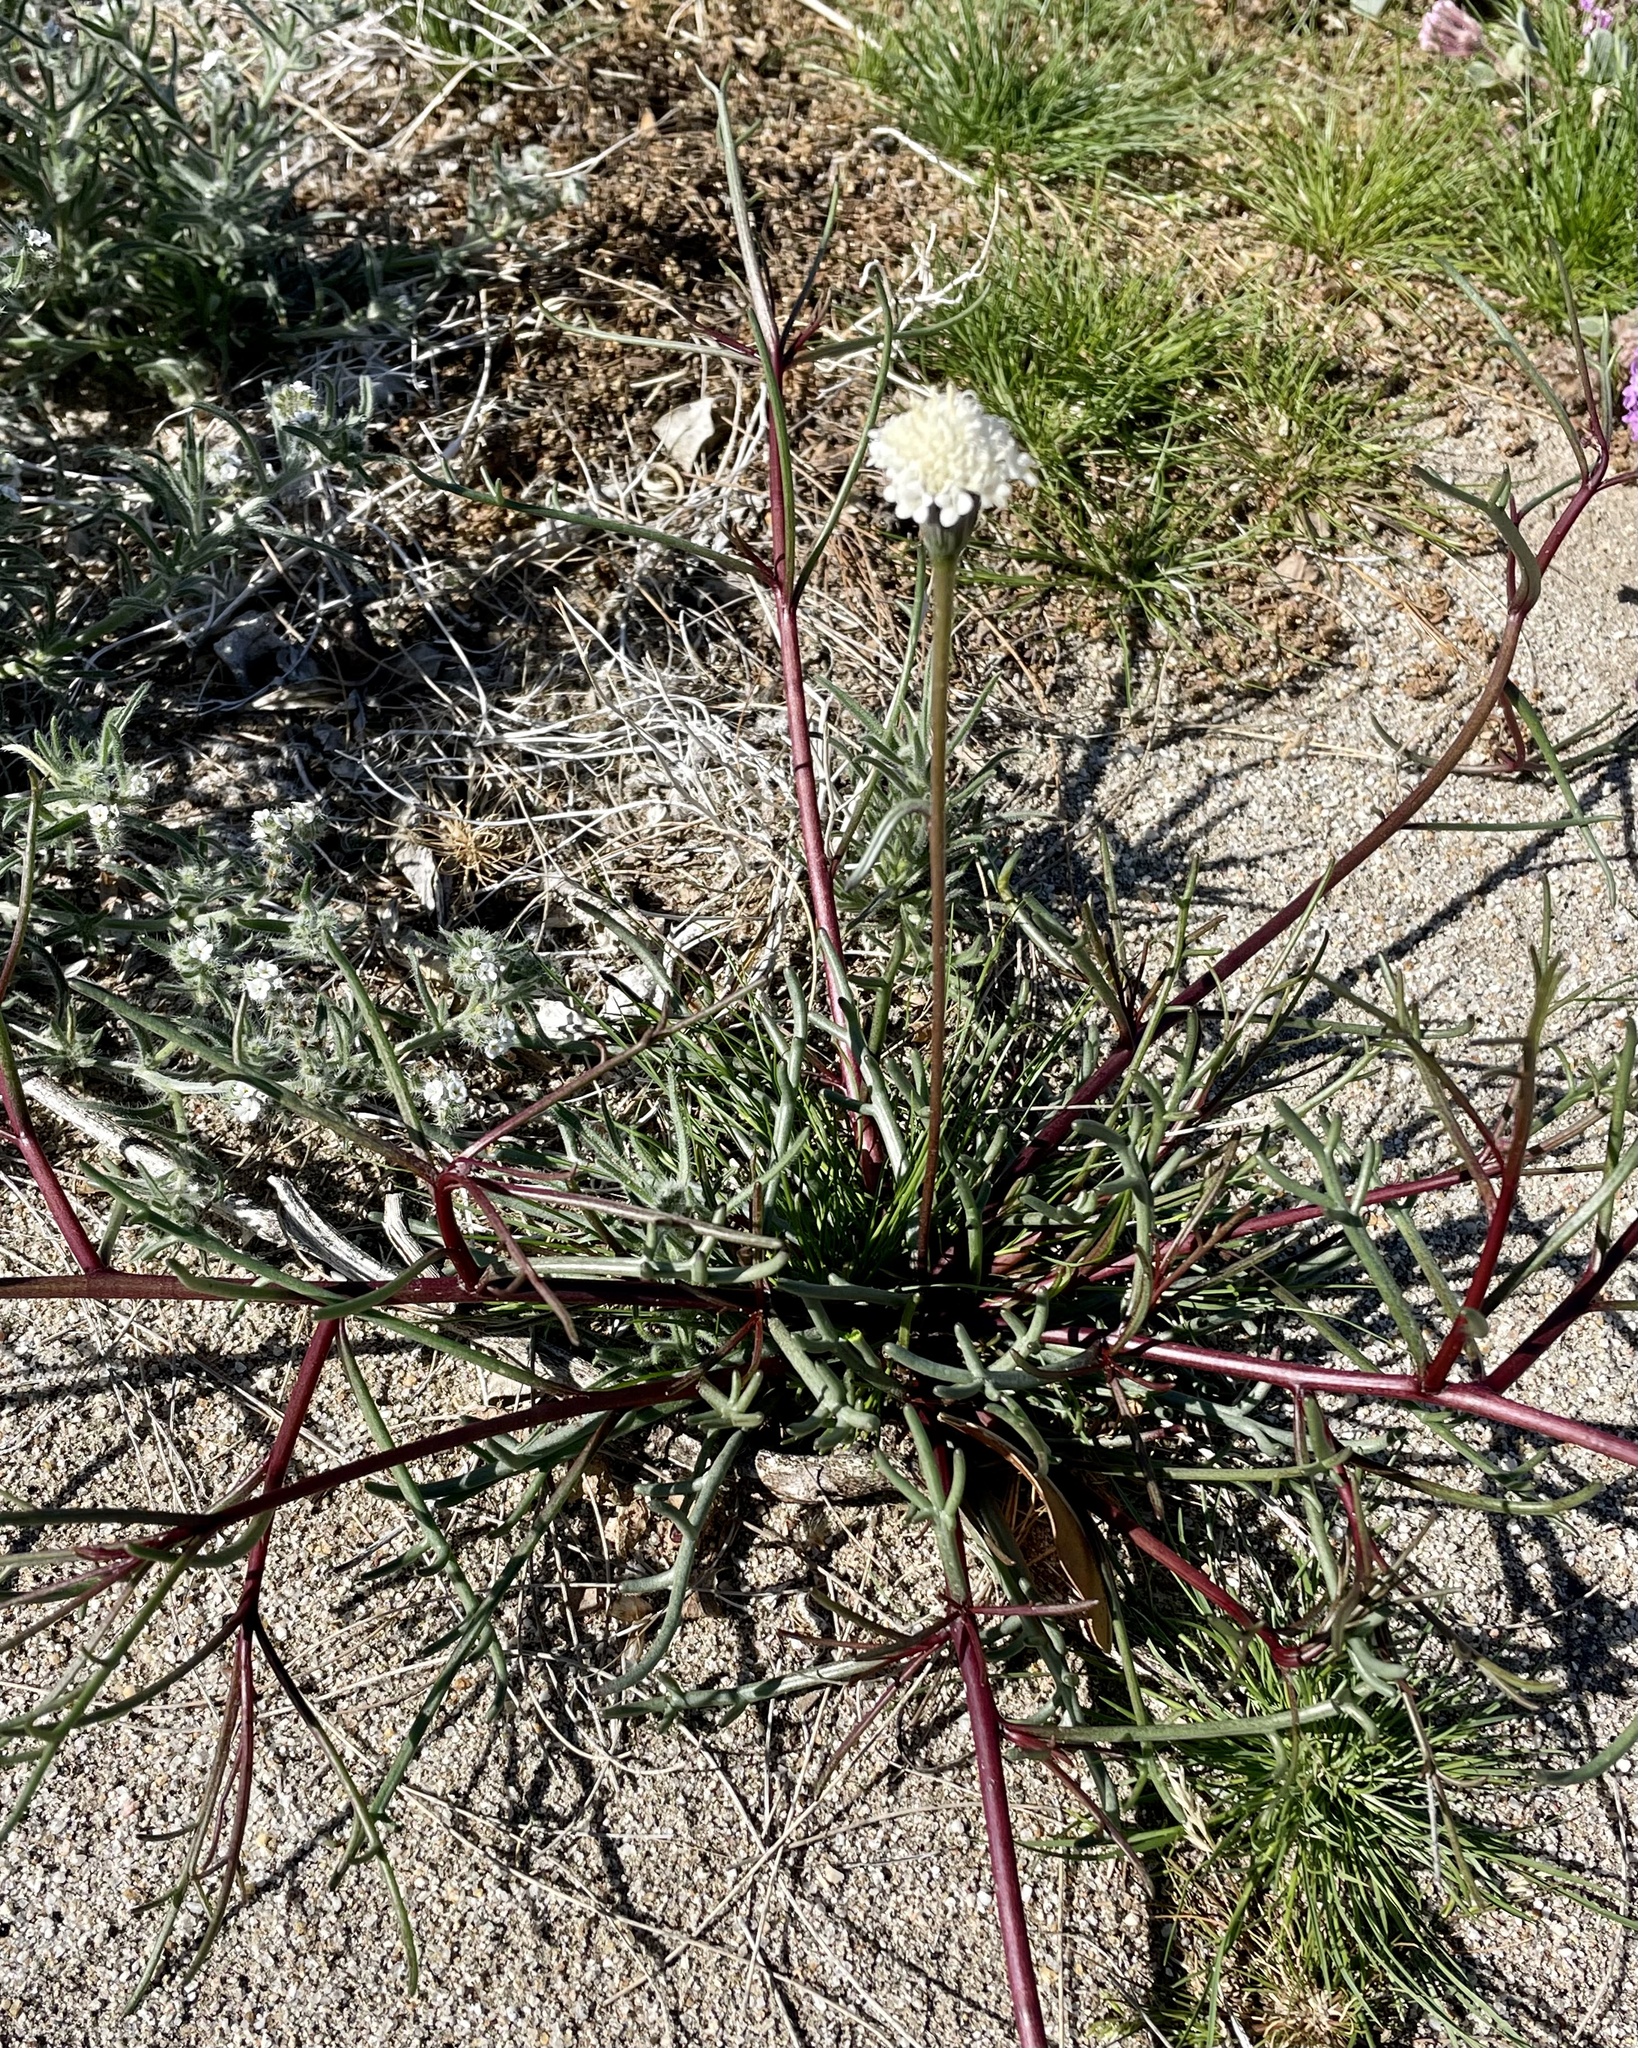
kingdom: Plantae
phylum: Tracheophyta
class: Magnoliopsida
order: Asterales
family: Asteraceae
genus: Chaenactis
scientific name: Chaenactis fremontii
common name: Fremont pincushion
